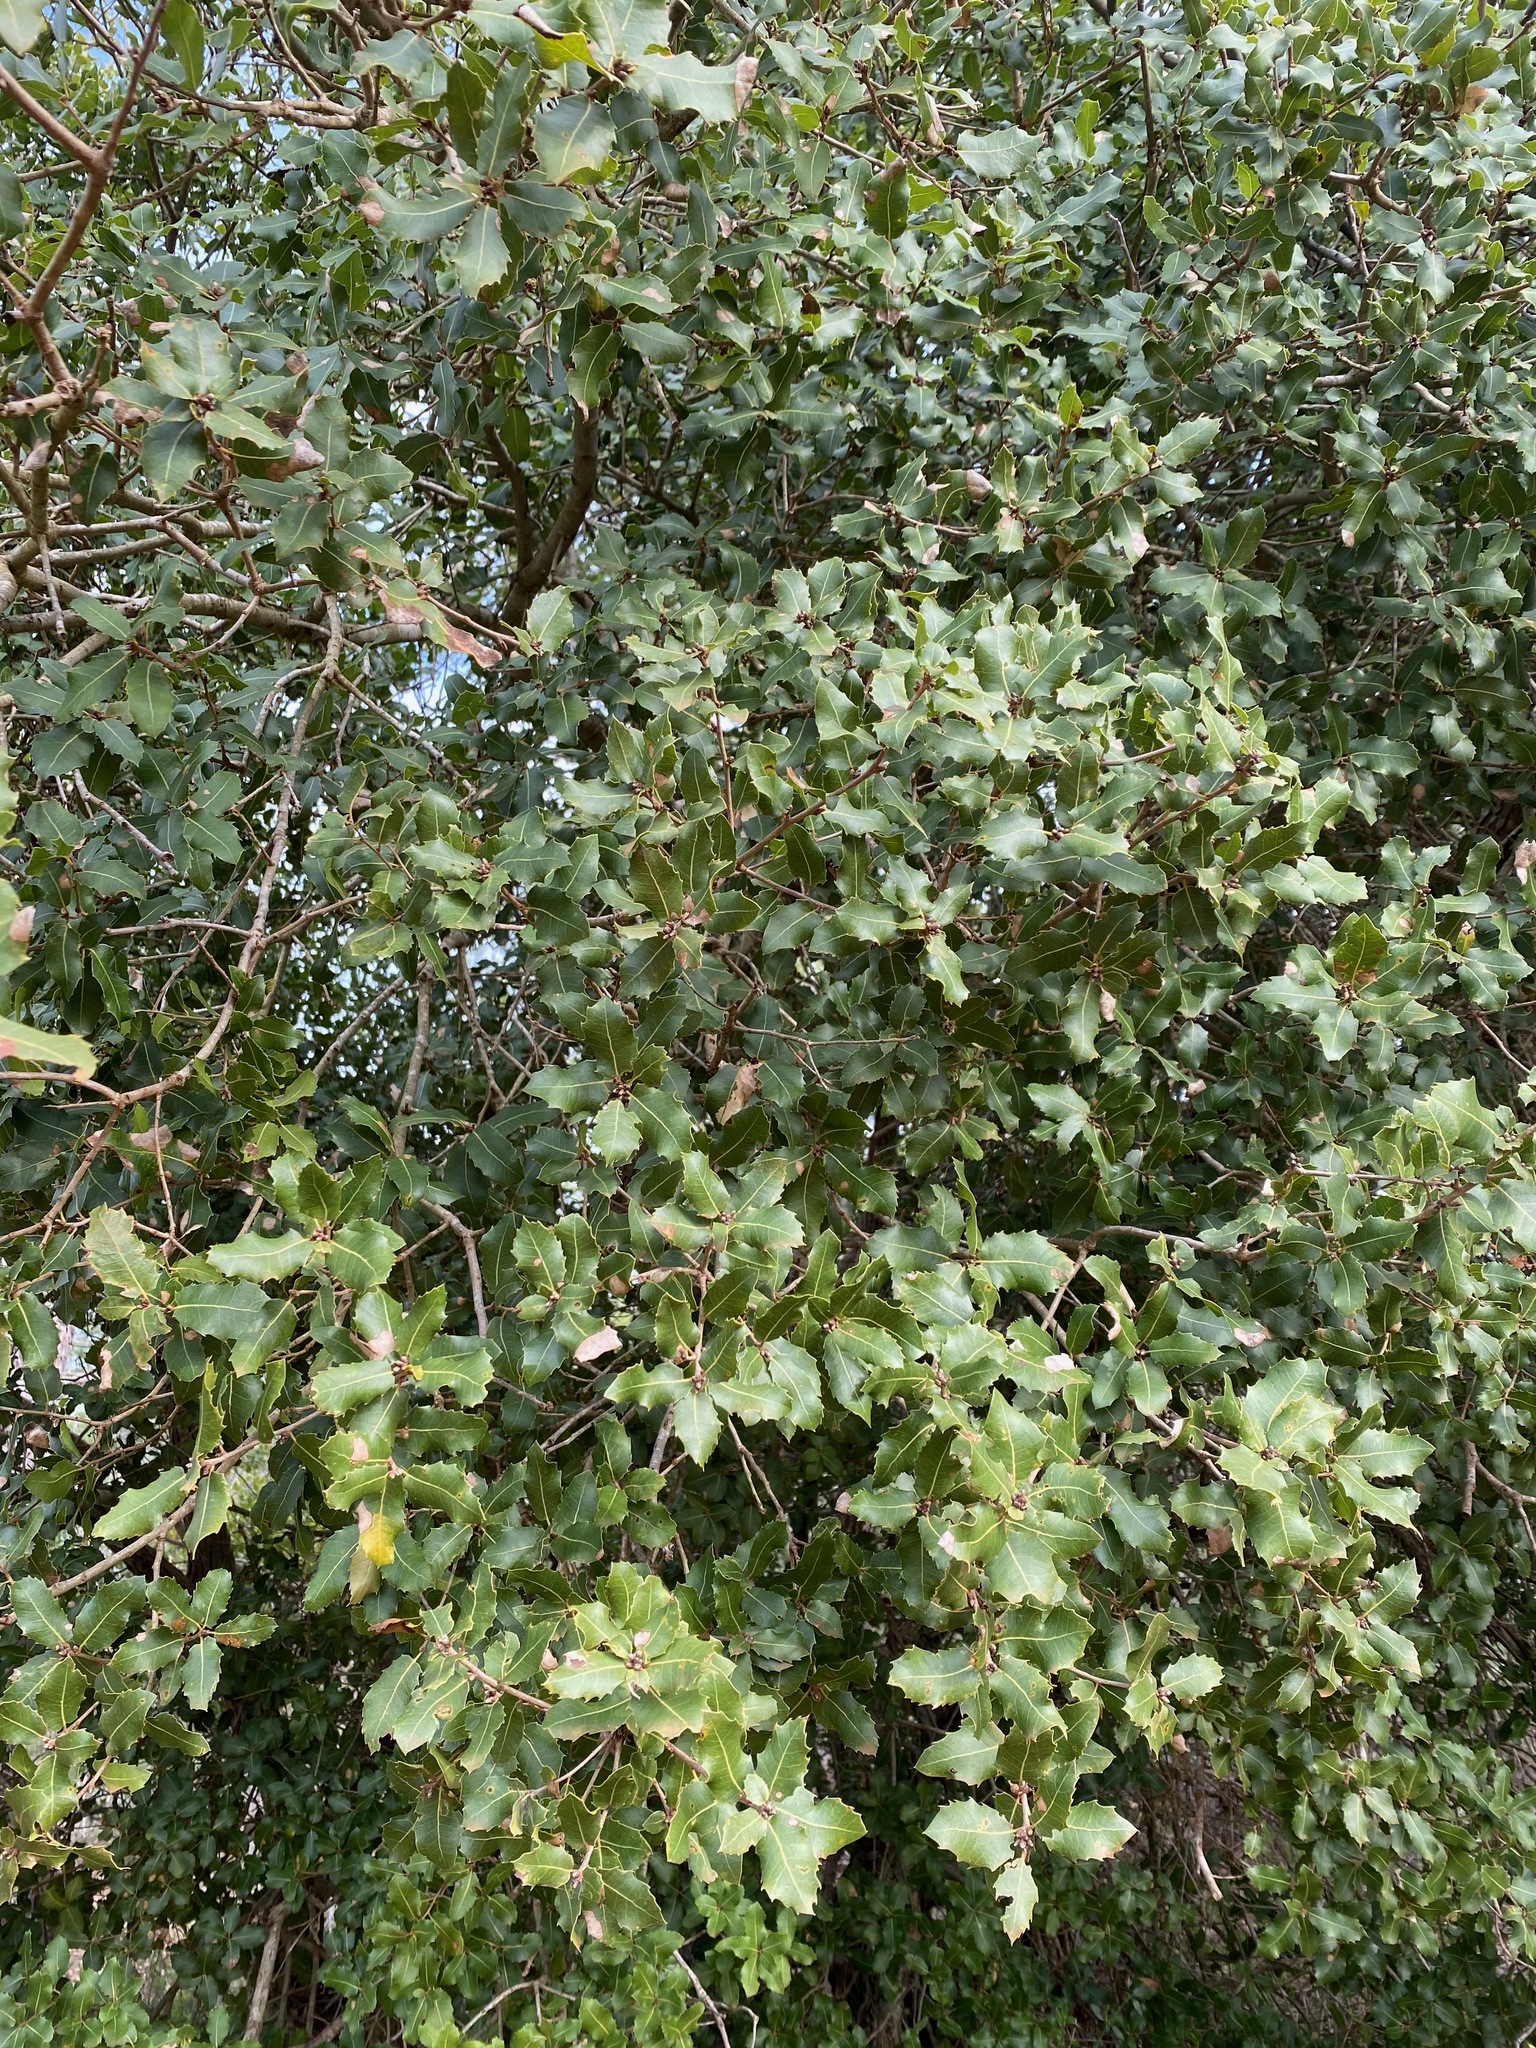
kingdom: Plantae
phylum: Tracheophyta
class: Magnoliopsida
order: Fagales
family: Fagaceae
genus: Quercus
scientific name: Quercus coccifera
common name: Kermes oak
